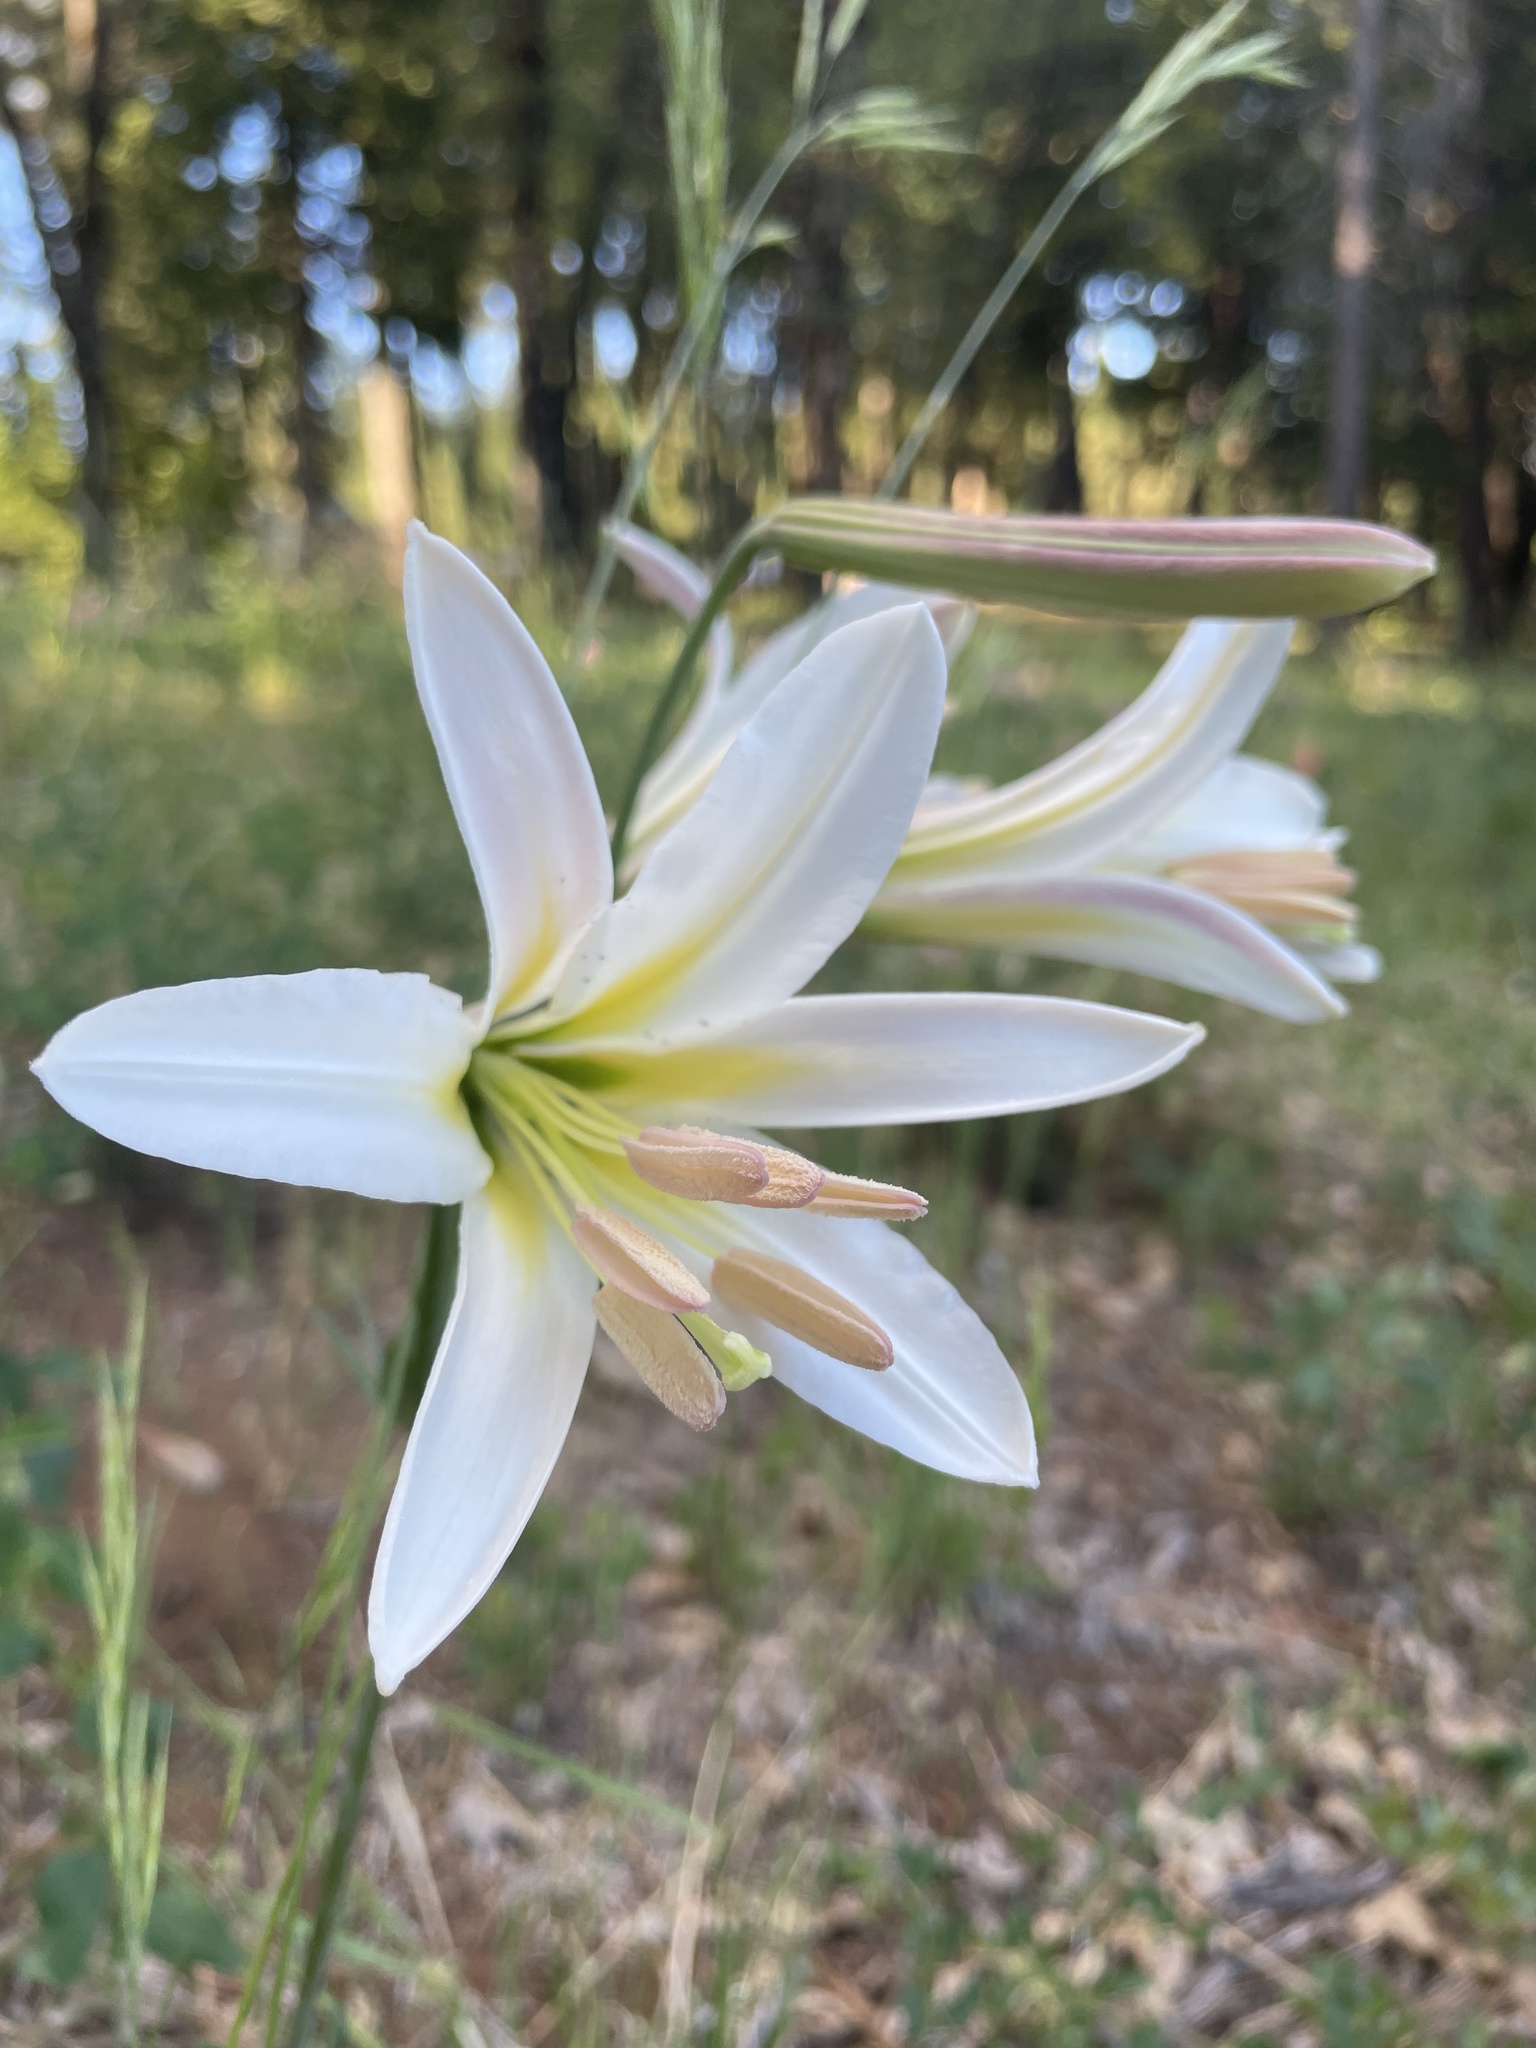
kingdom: Plantae
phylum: Tracheophyta
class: Liliopsida
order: Liliales
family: Liliaceae
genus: Lilium
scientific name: Lilium washingtonianum
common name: Washington lily
